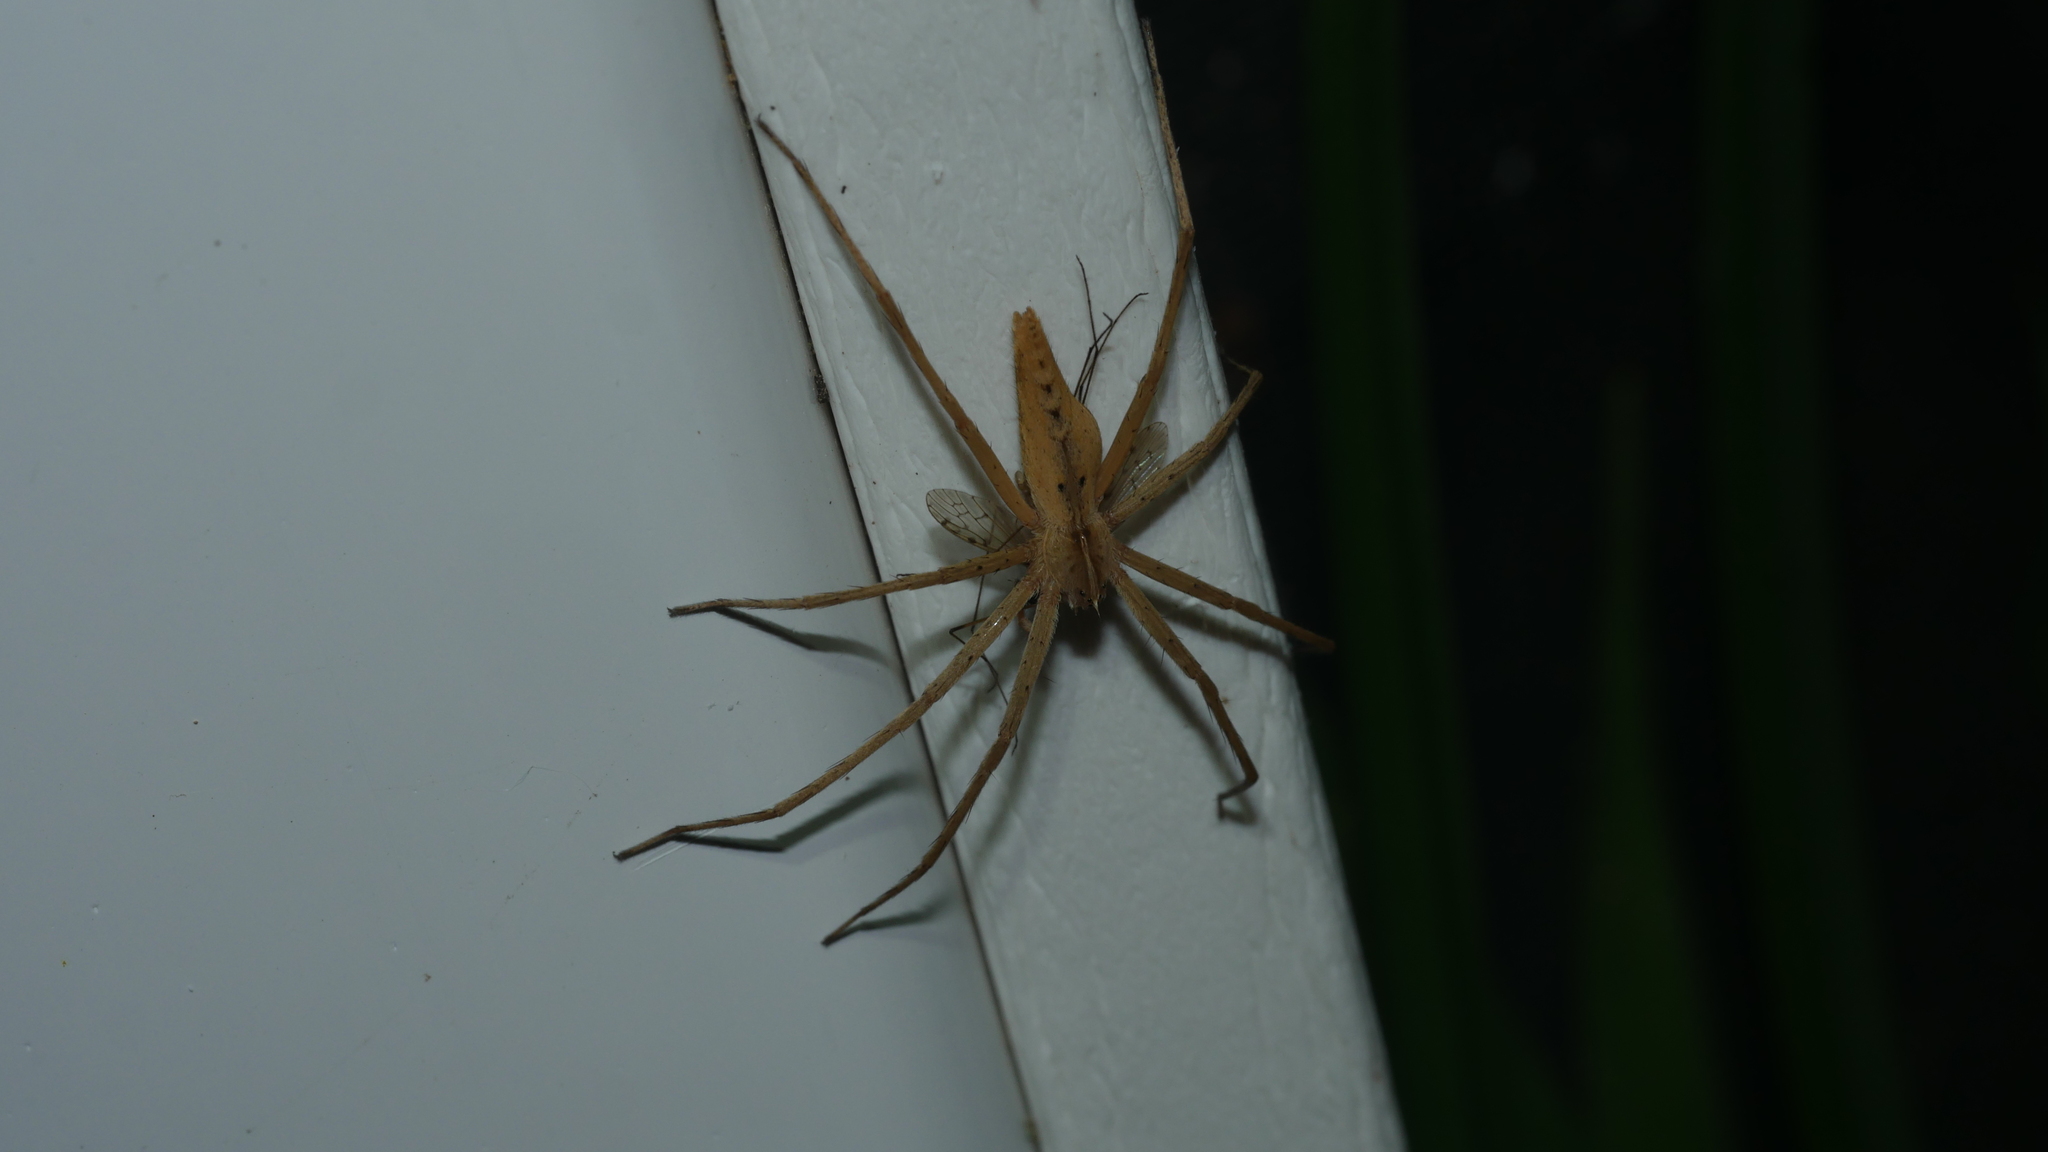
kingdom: Animalia
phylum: Arthropoda
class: Arachnida
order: Araneae
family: Pisauridae
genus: Pisaurina
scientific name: Pisaurina dubia
